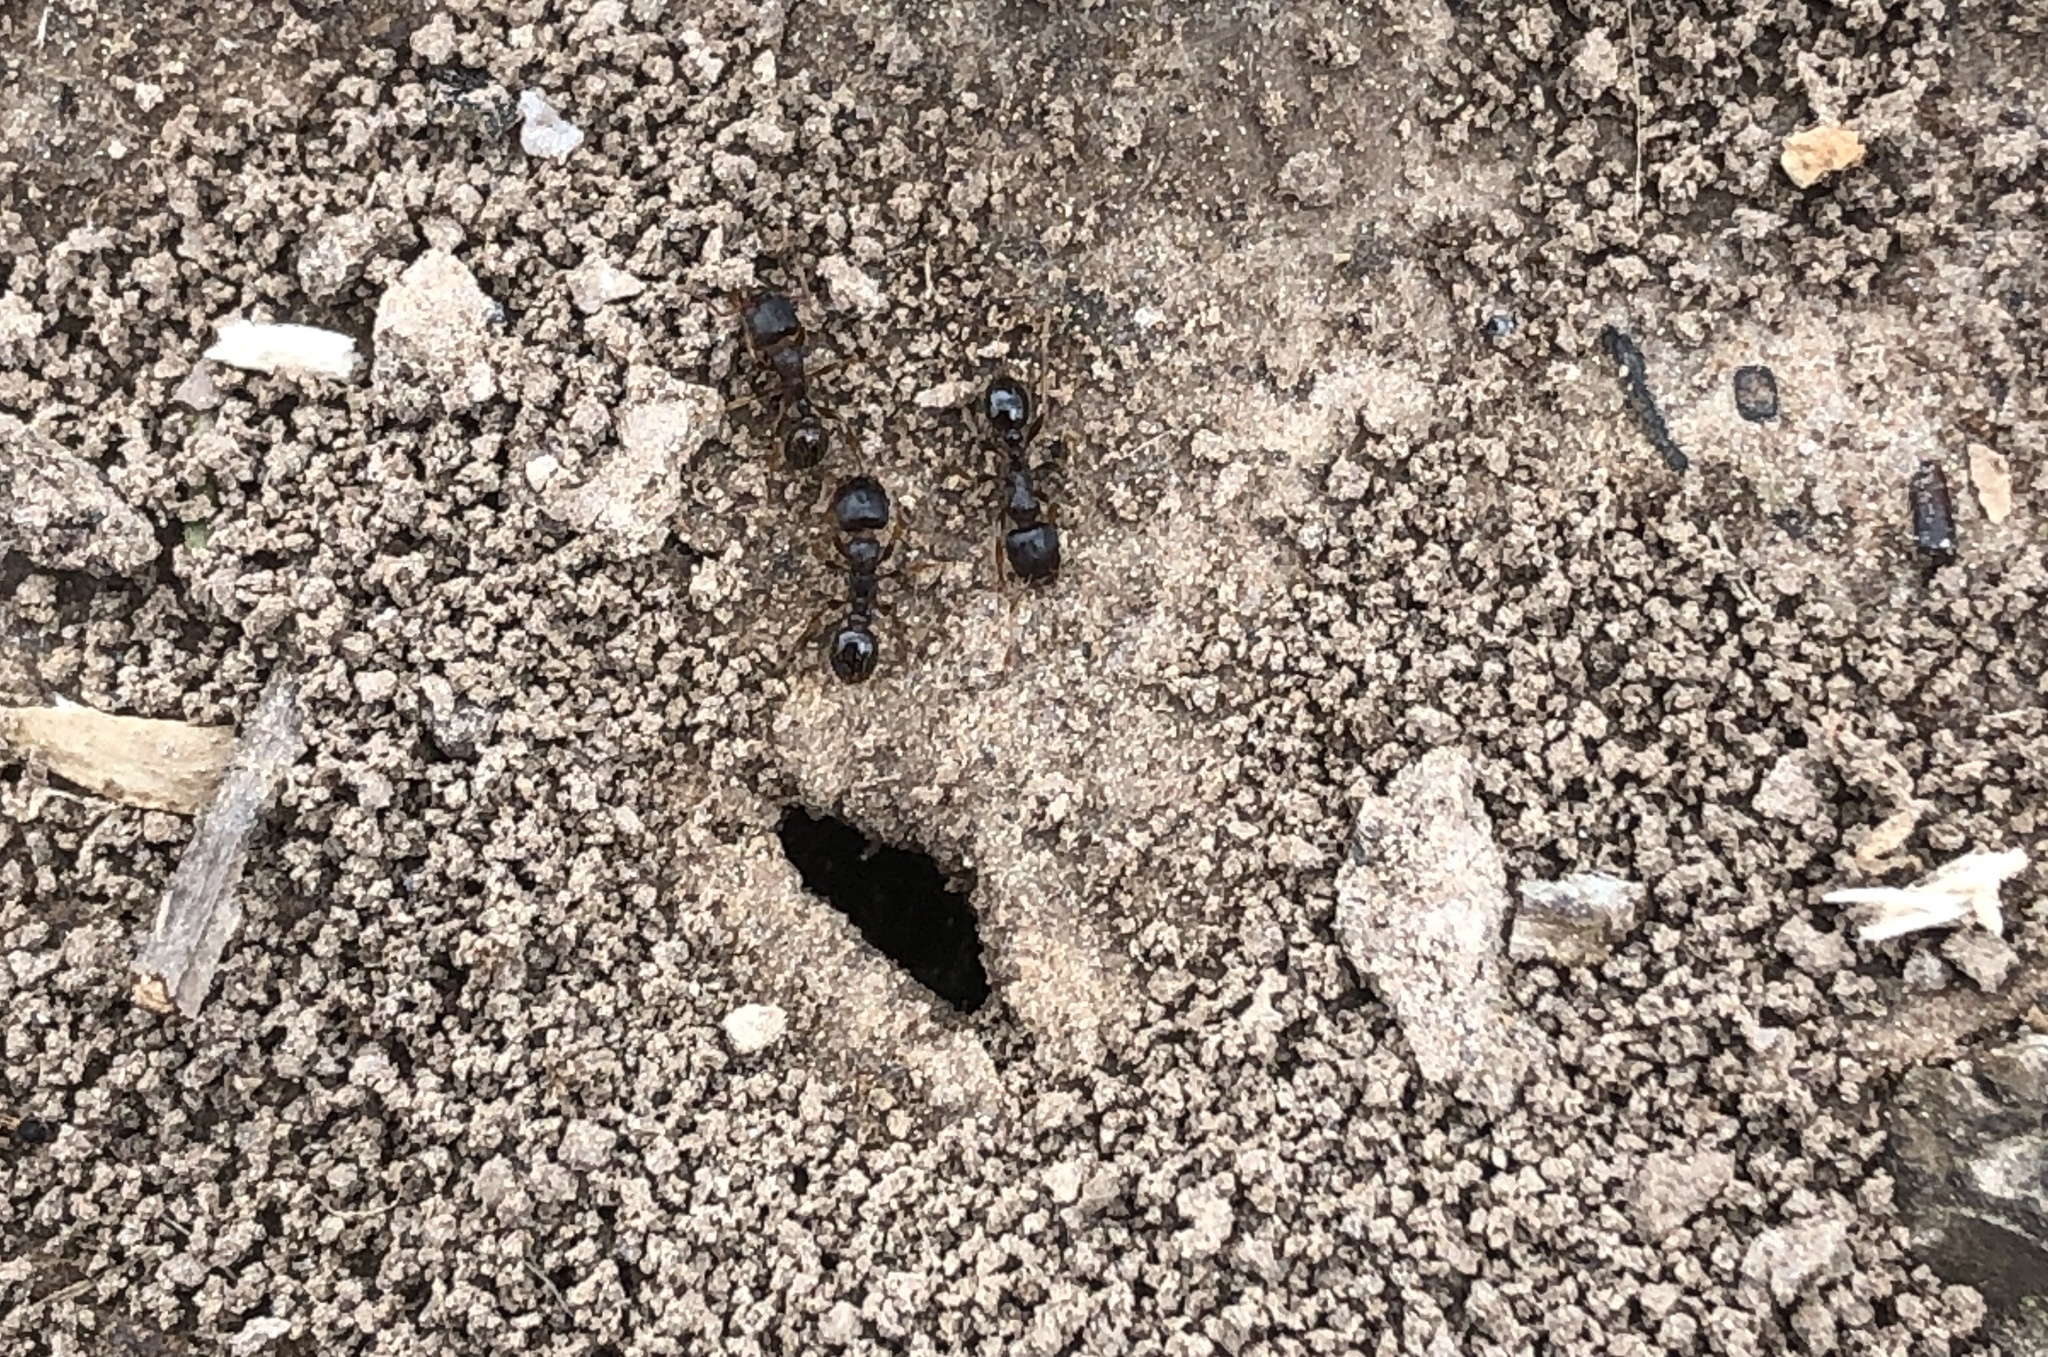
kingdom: Animalia
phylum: Arthropoda
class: Insecta
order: Hymenoptera
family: Formicidae
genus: Tetramorium
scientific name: Tetramorium immigrans
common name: Pavement ant
